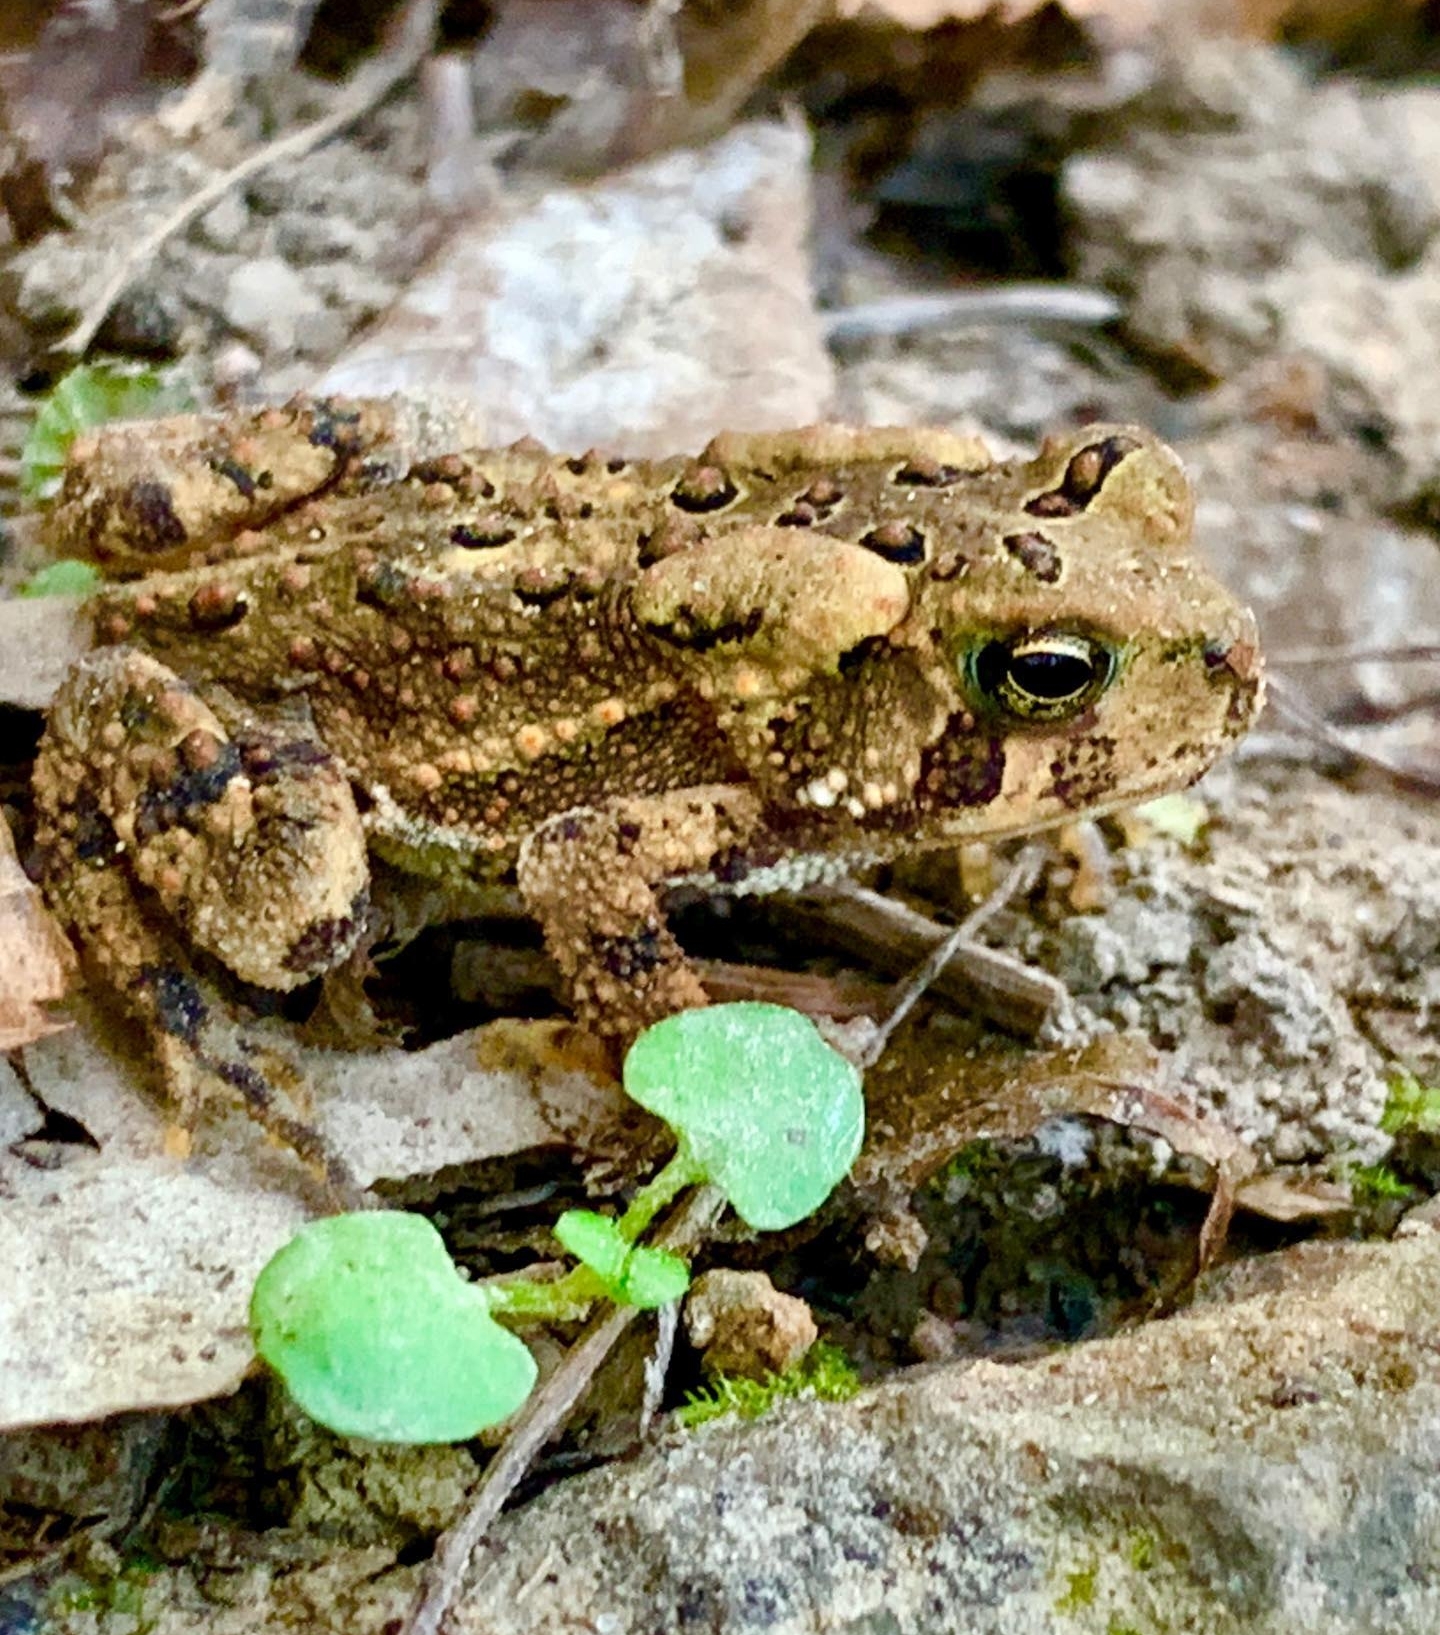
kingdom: Animalia
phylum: Chordata
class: Amphibia
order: Anura
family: Bufonidae
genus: Anaxyrus
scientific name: Anaxyrus americanus
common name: American toad
